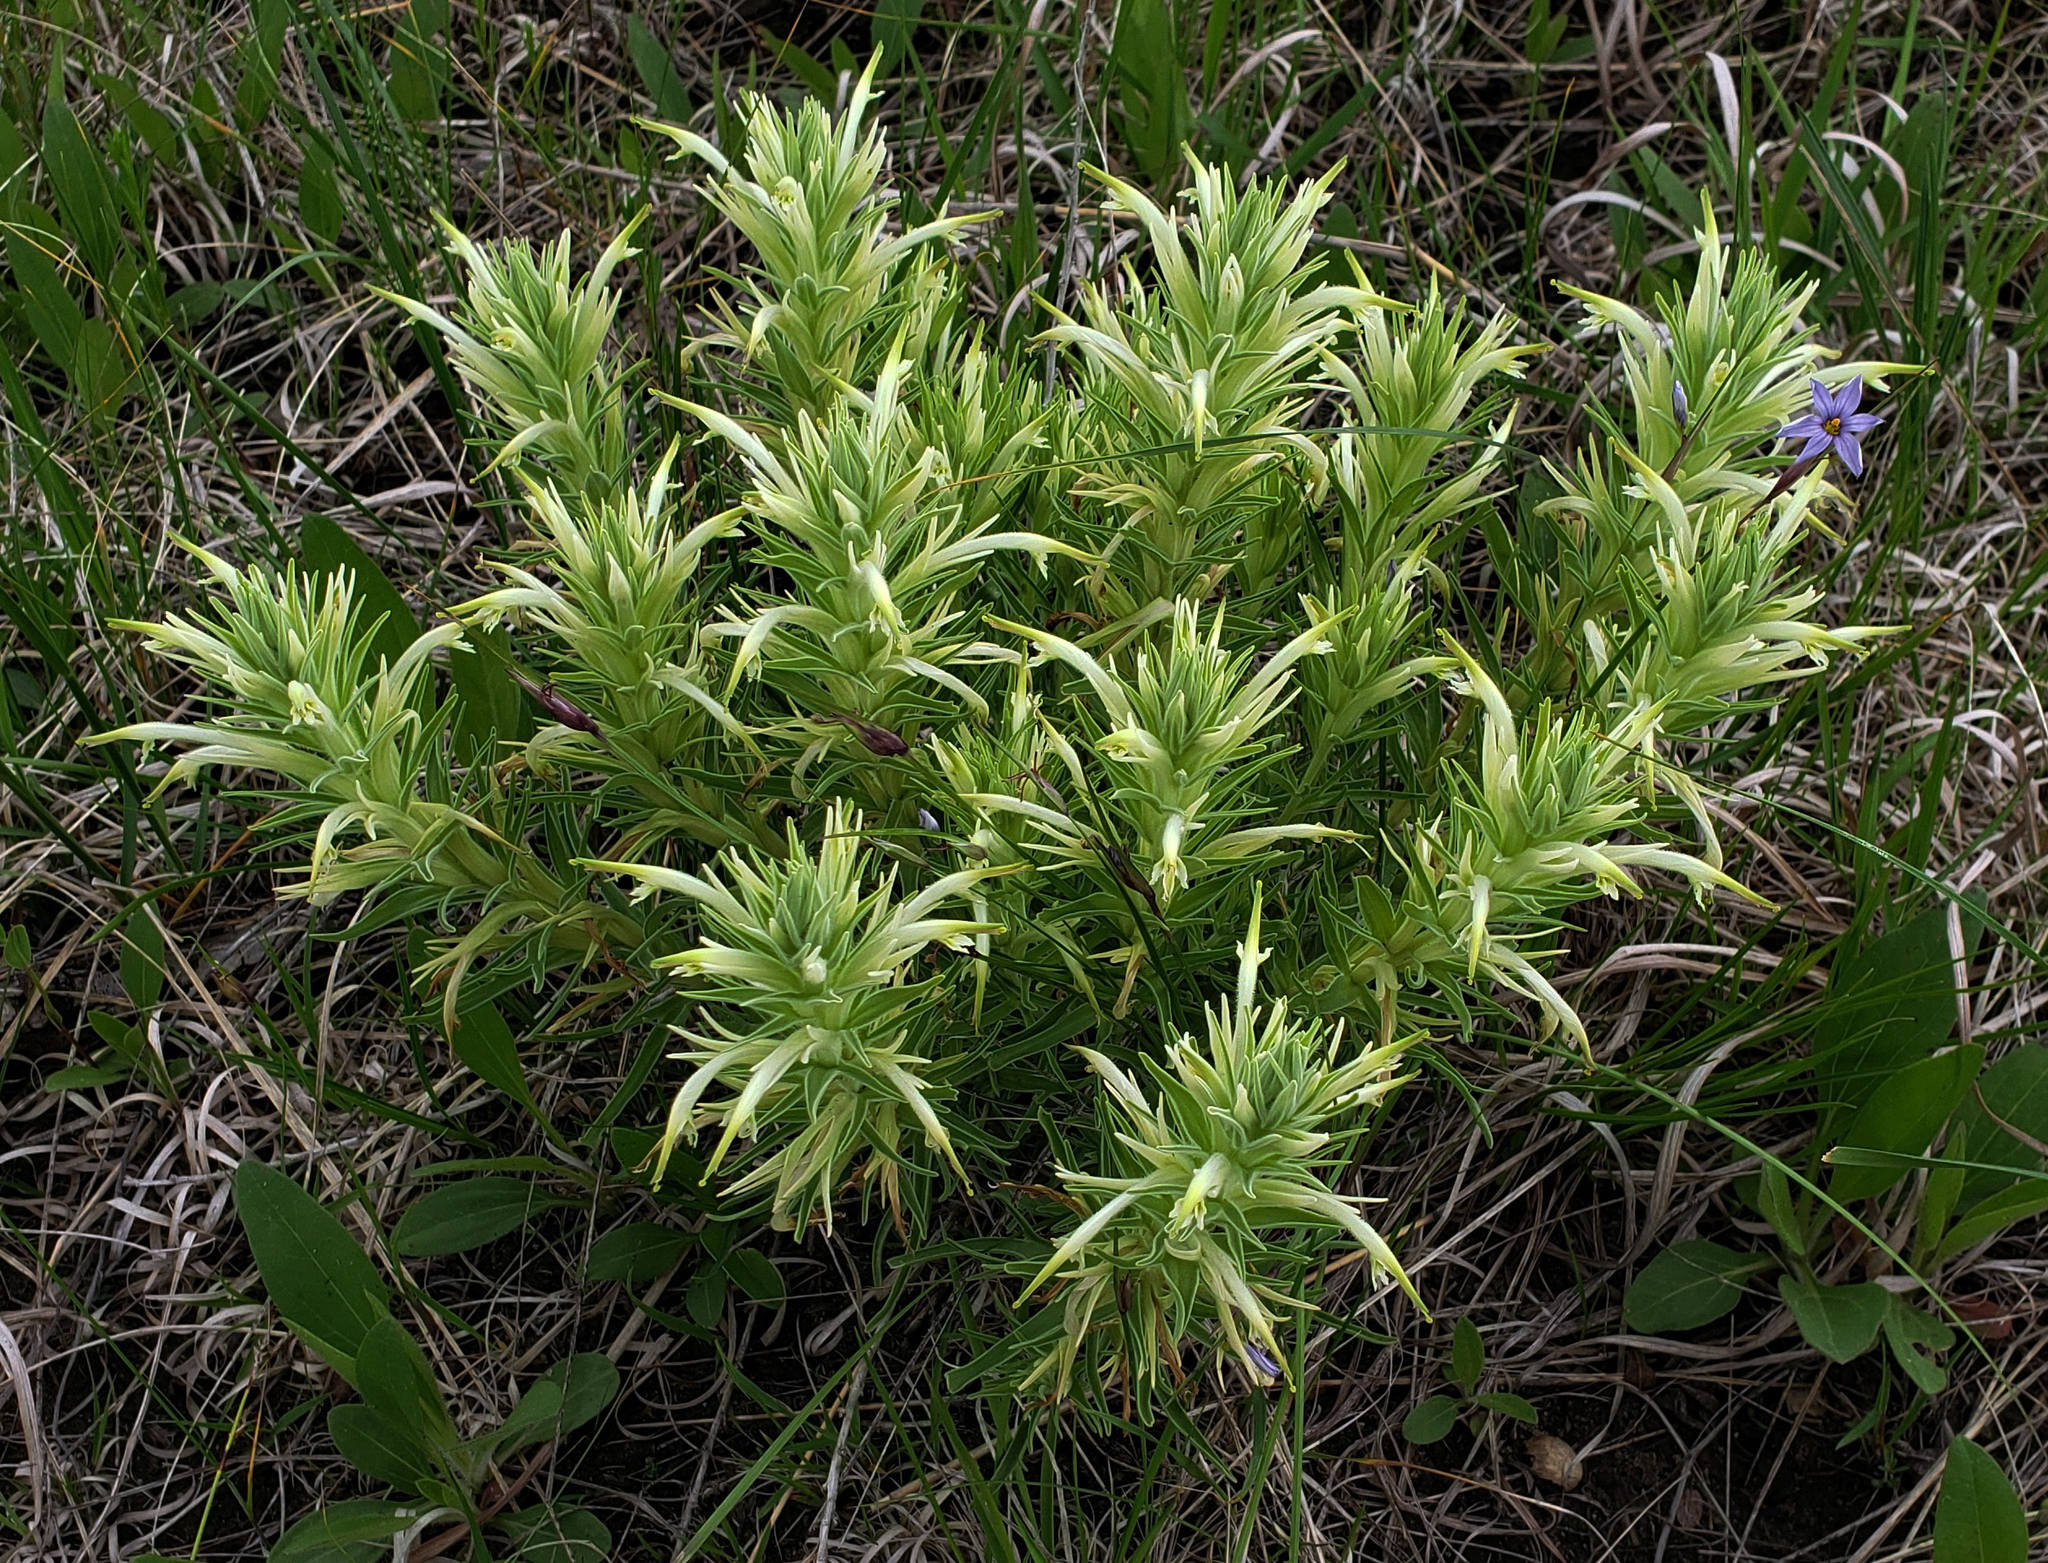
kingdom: Plantae
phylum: Tracheophyta
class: Magnoliopsida
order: Lamiales
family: Orobanchaceae
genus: Castilleja
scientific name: Castilleja sessiliflora
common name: Downy paintbrush
